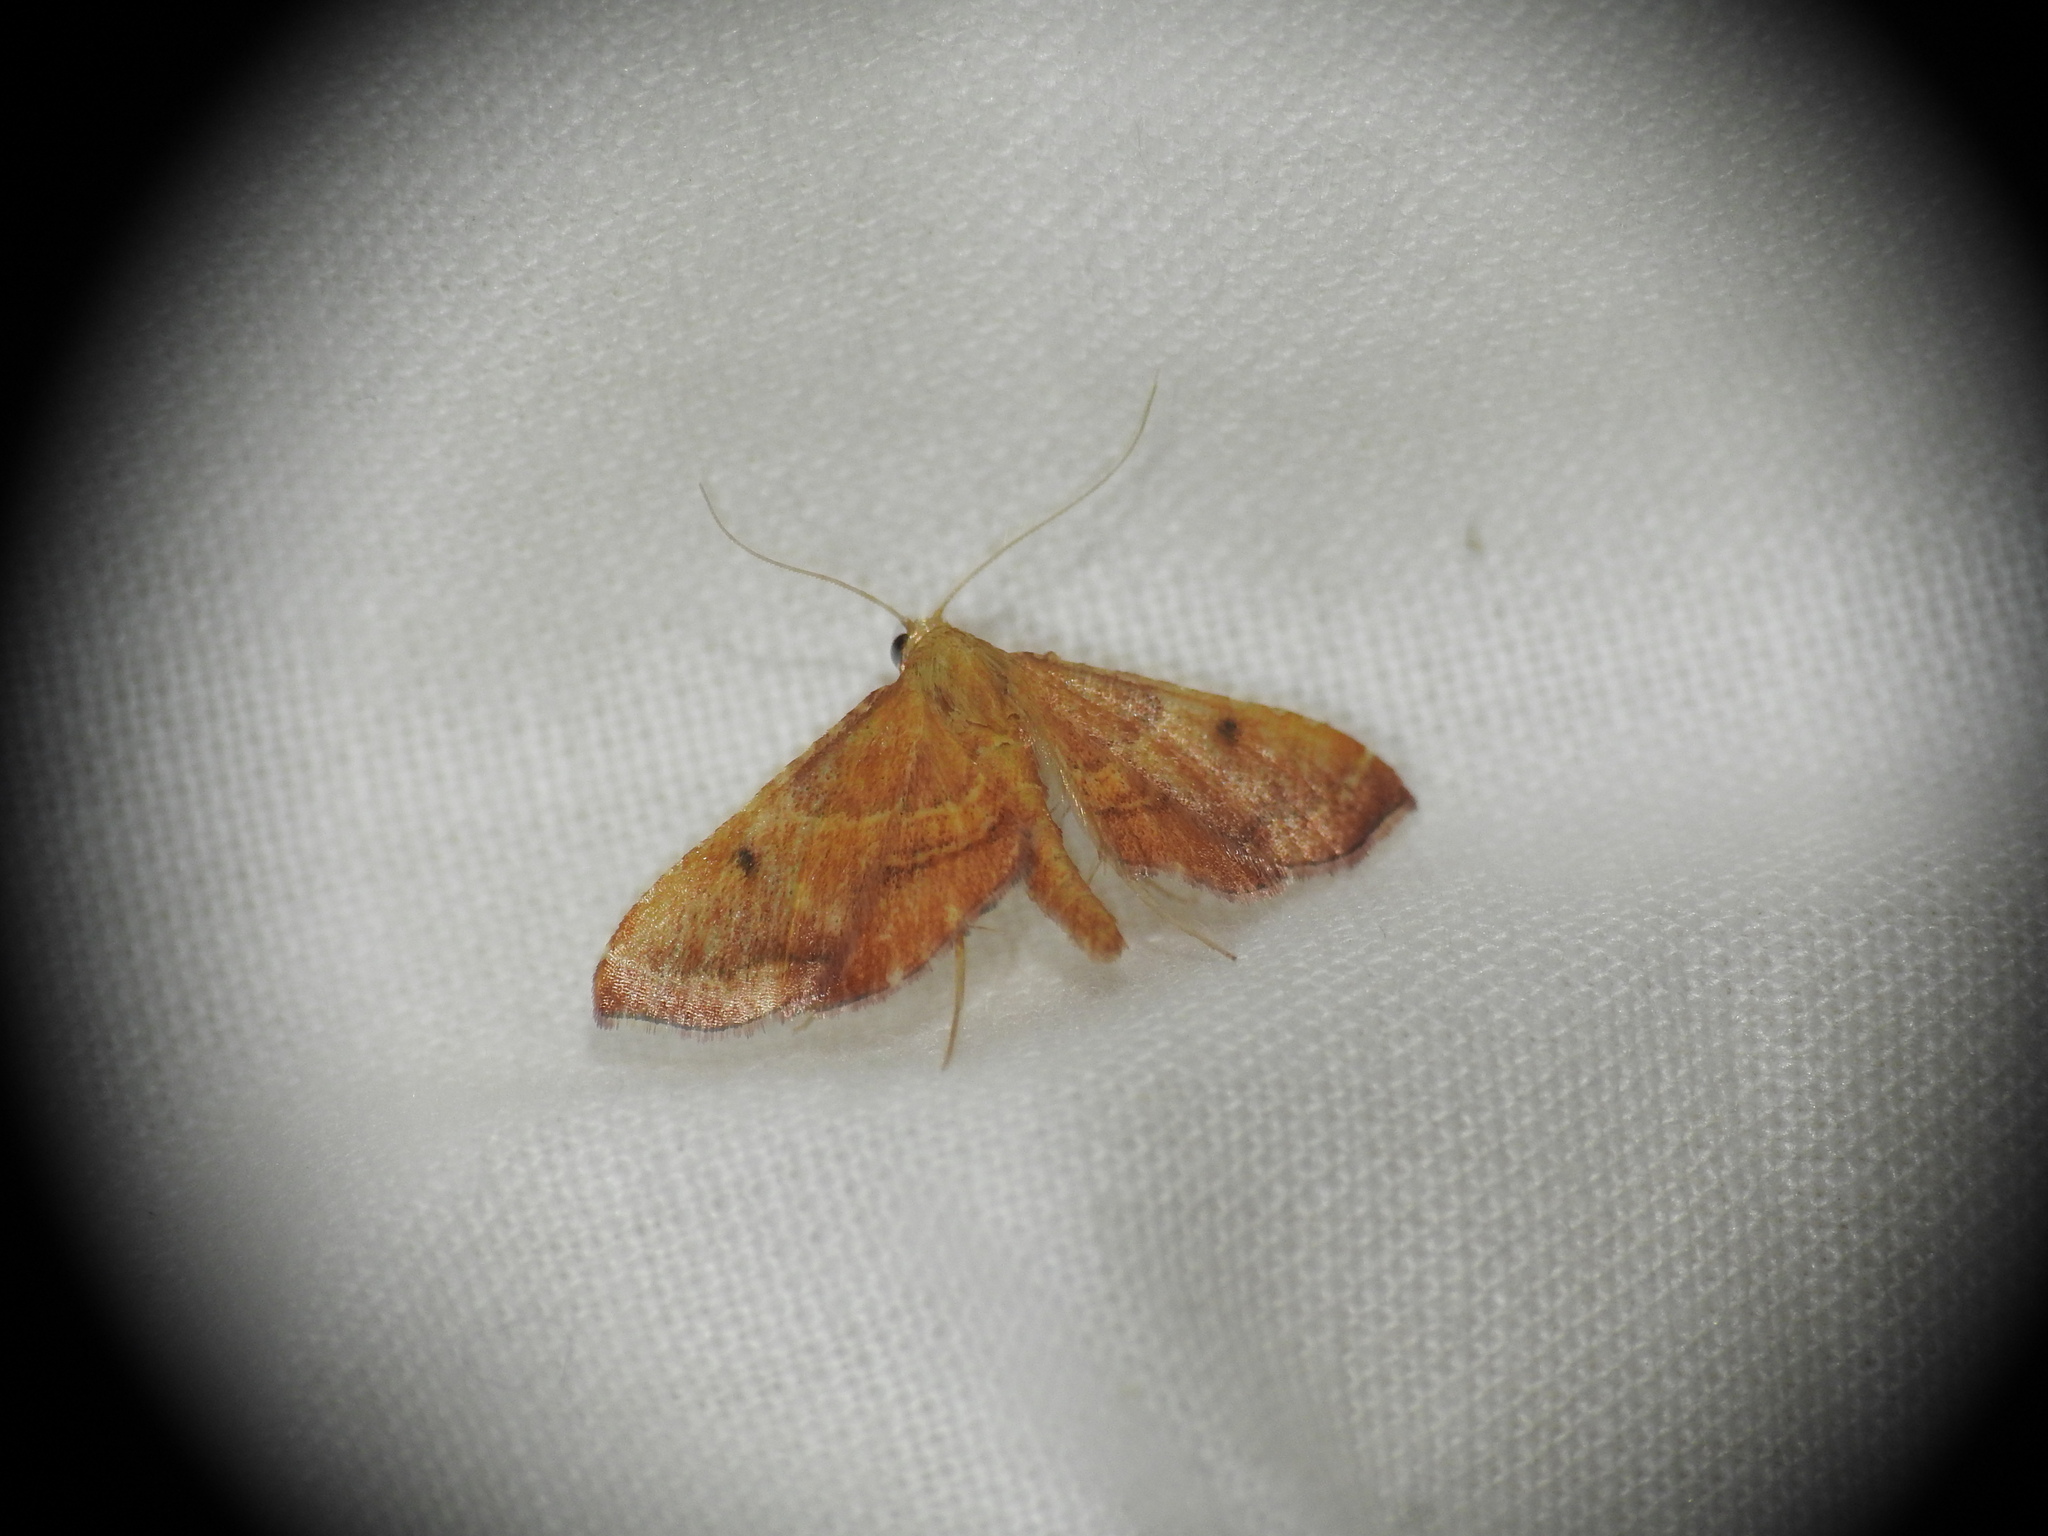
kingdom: Animalia
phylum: Arthropoda
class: Insecta
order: Lepidoptera
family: Pyralidae
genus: Endotricha
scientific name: Endotricha flammealis
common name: Rosy tabby
